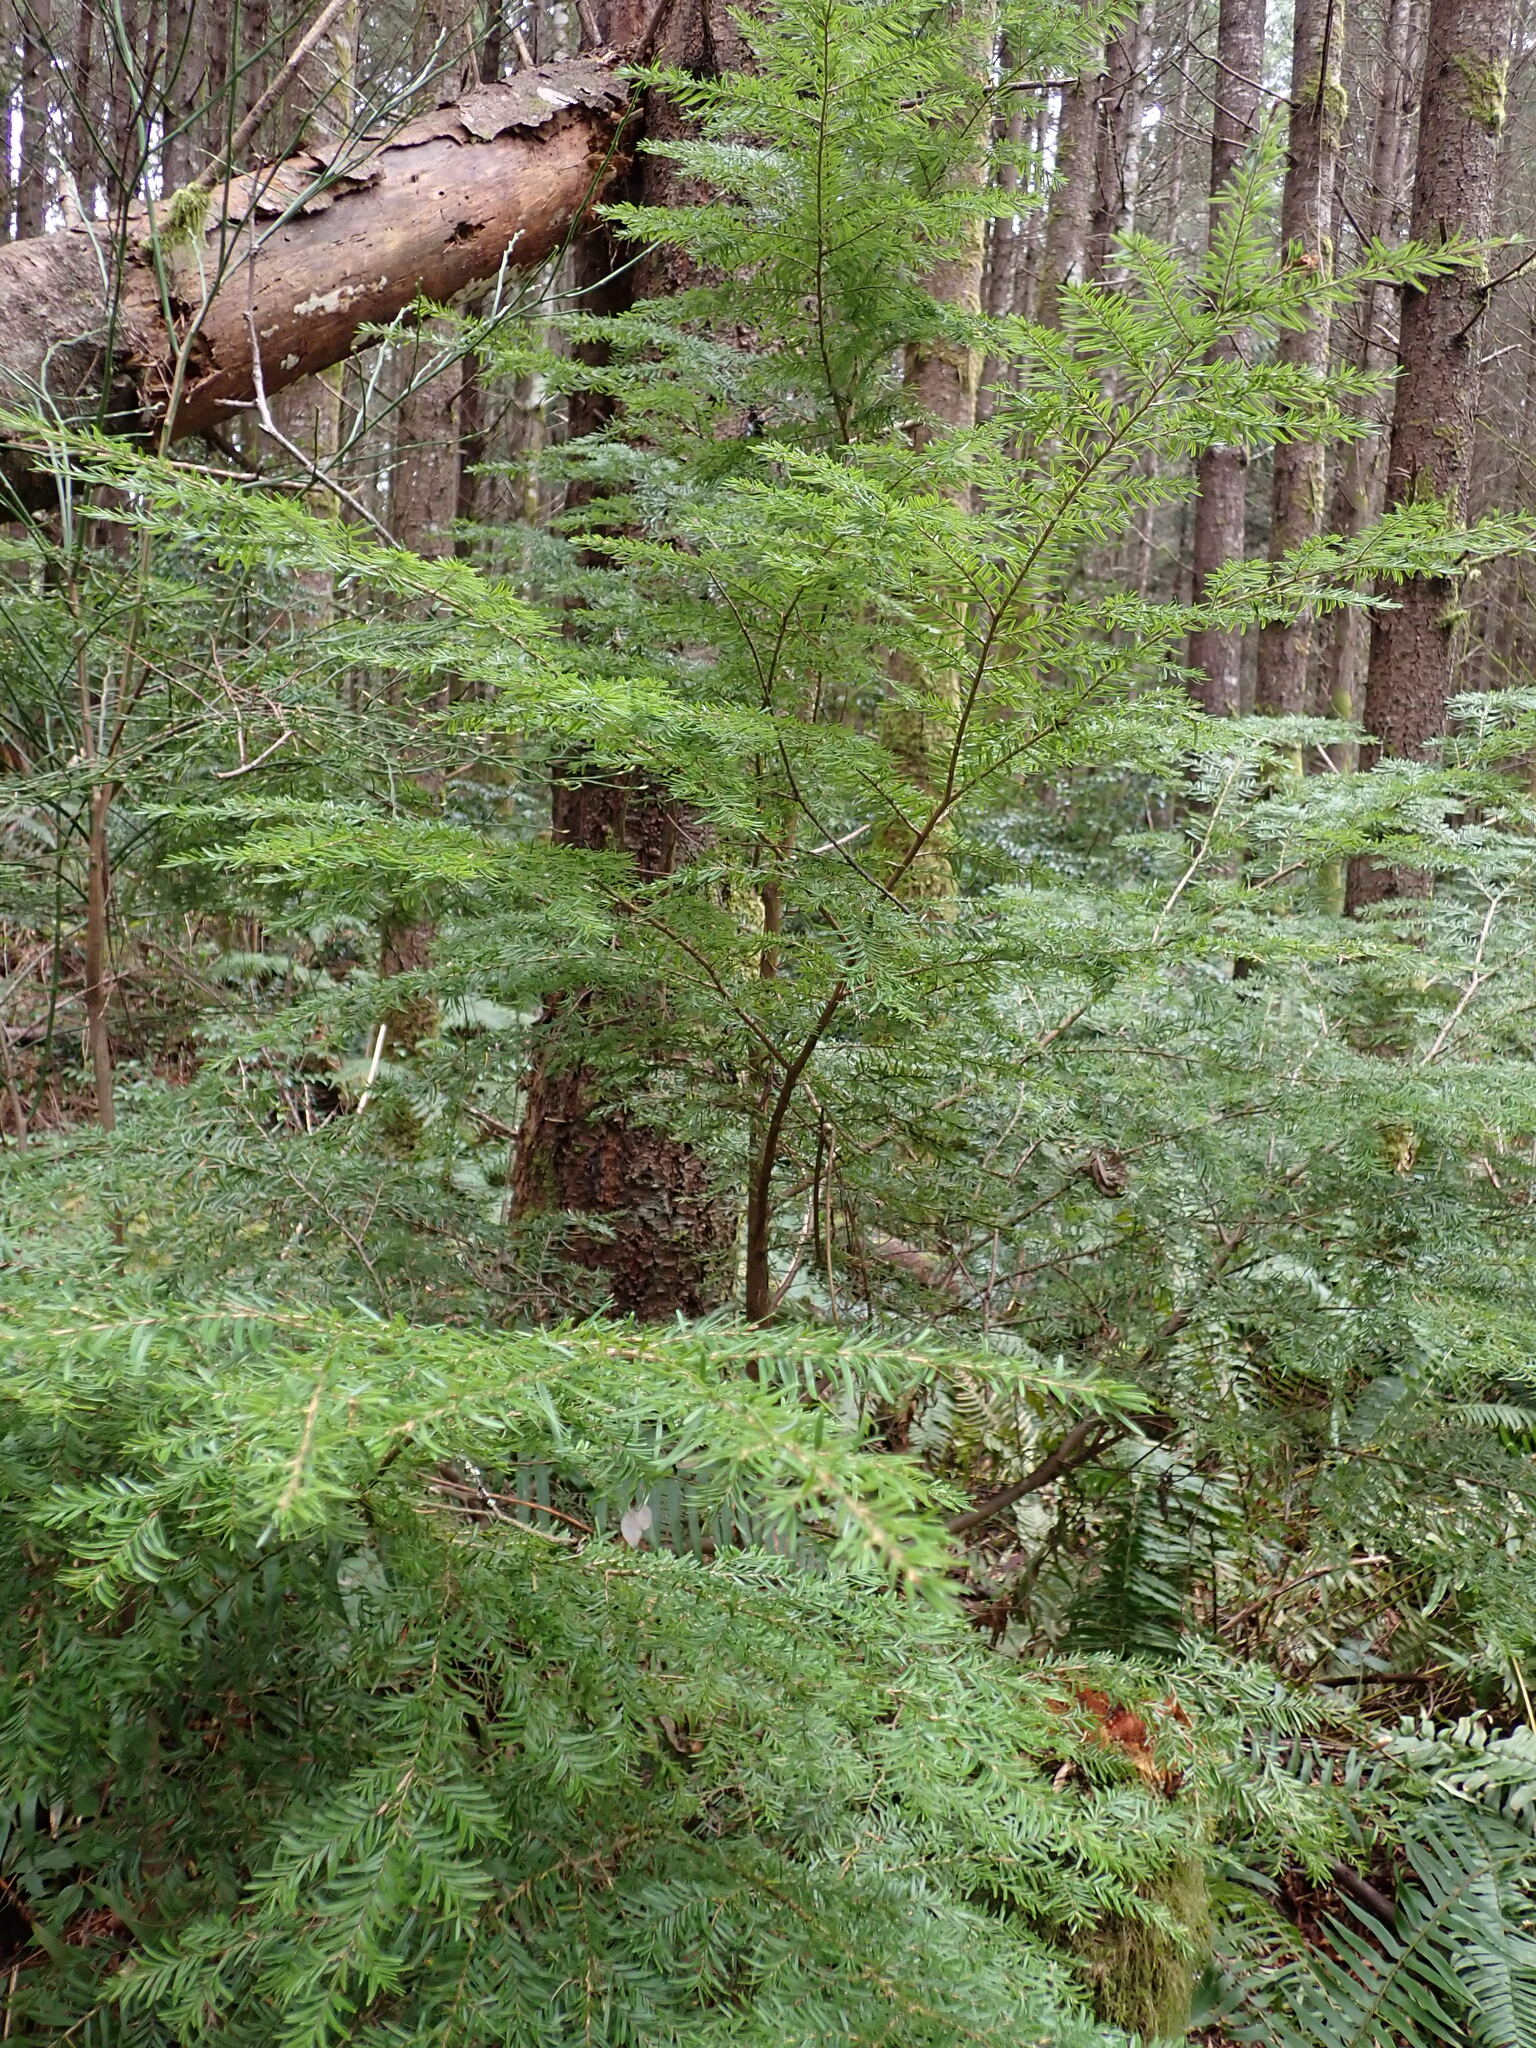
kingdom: Plantae
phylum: Tracheophyta
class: Pinopsida
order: Pinales
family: Pinaceae
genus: Tsuga
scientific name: Tsuga heterophylla
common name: Western hemlock
